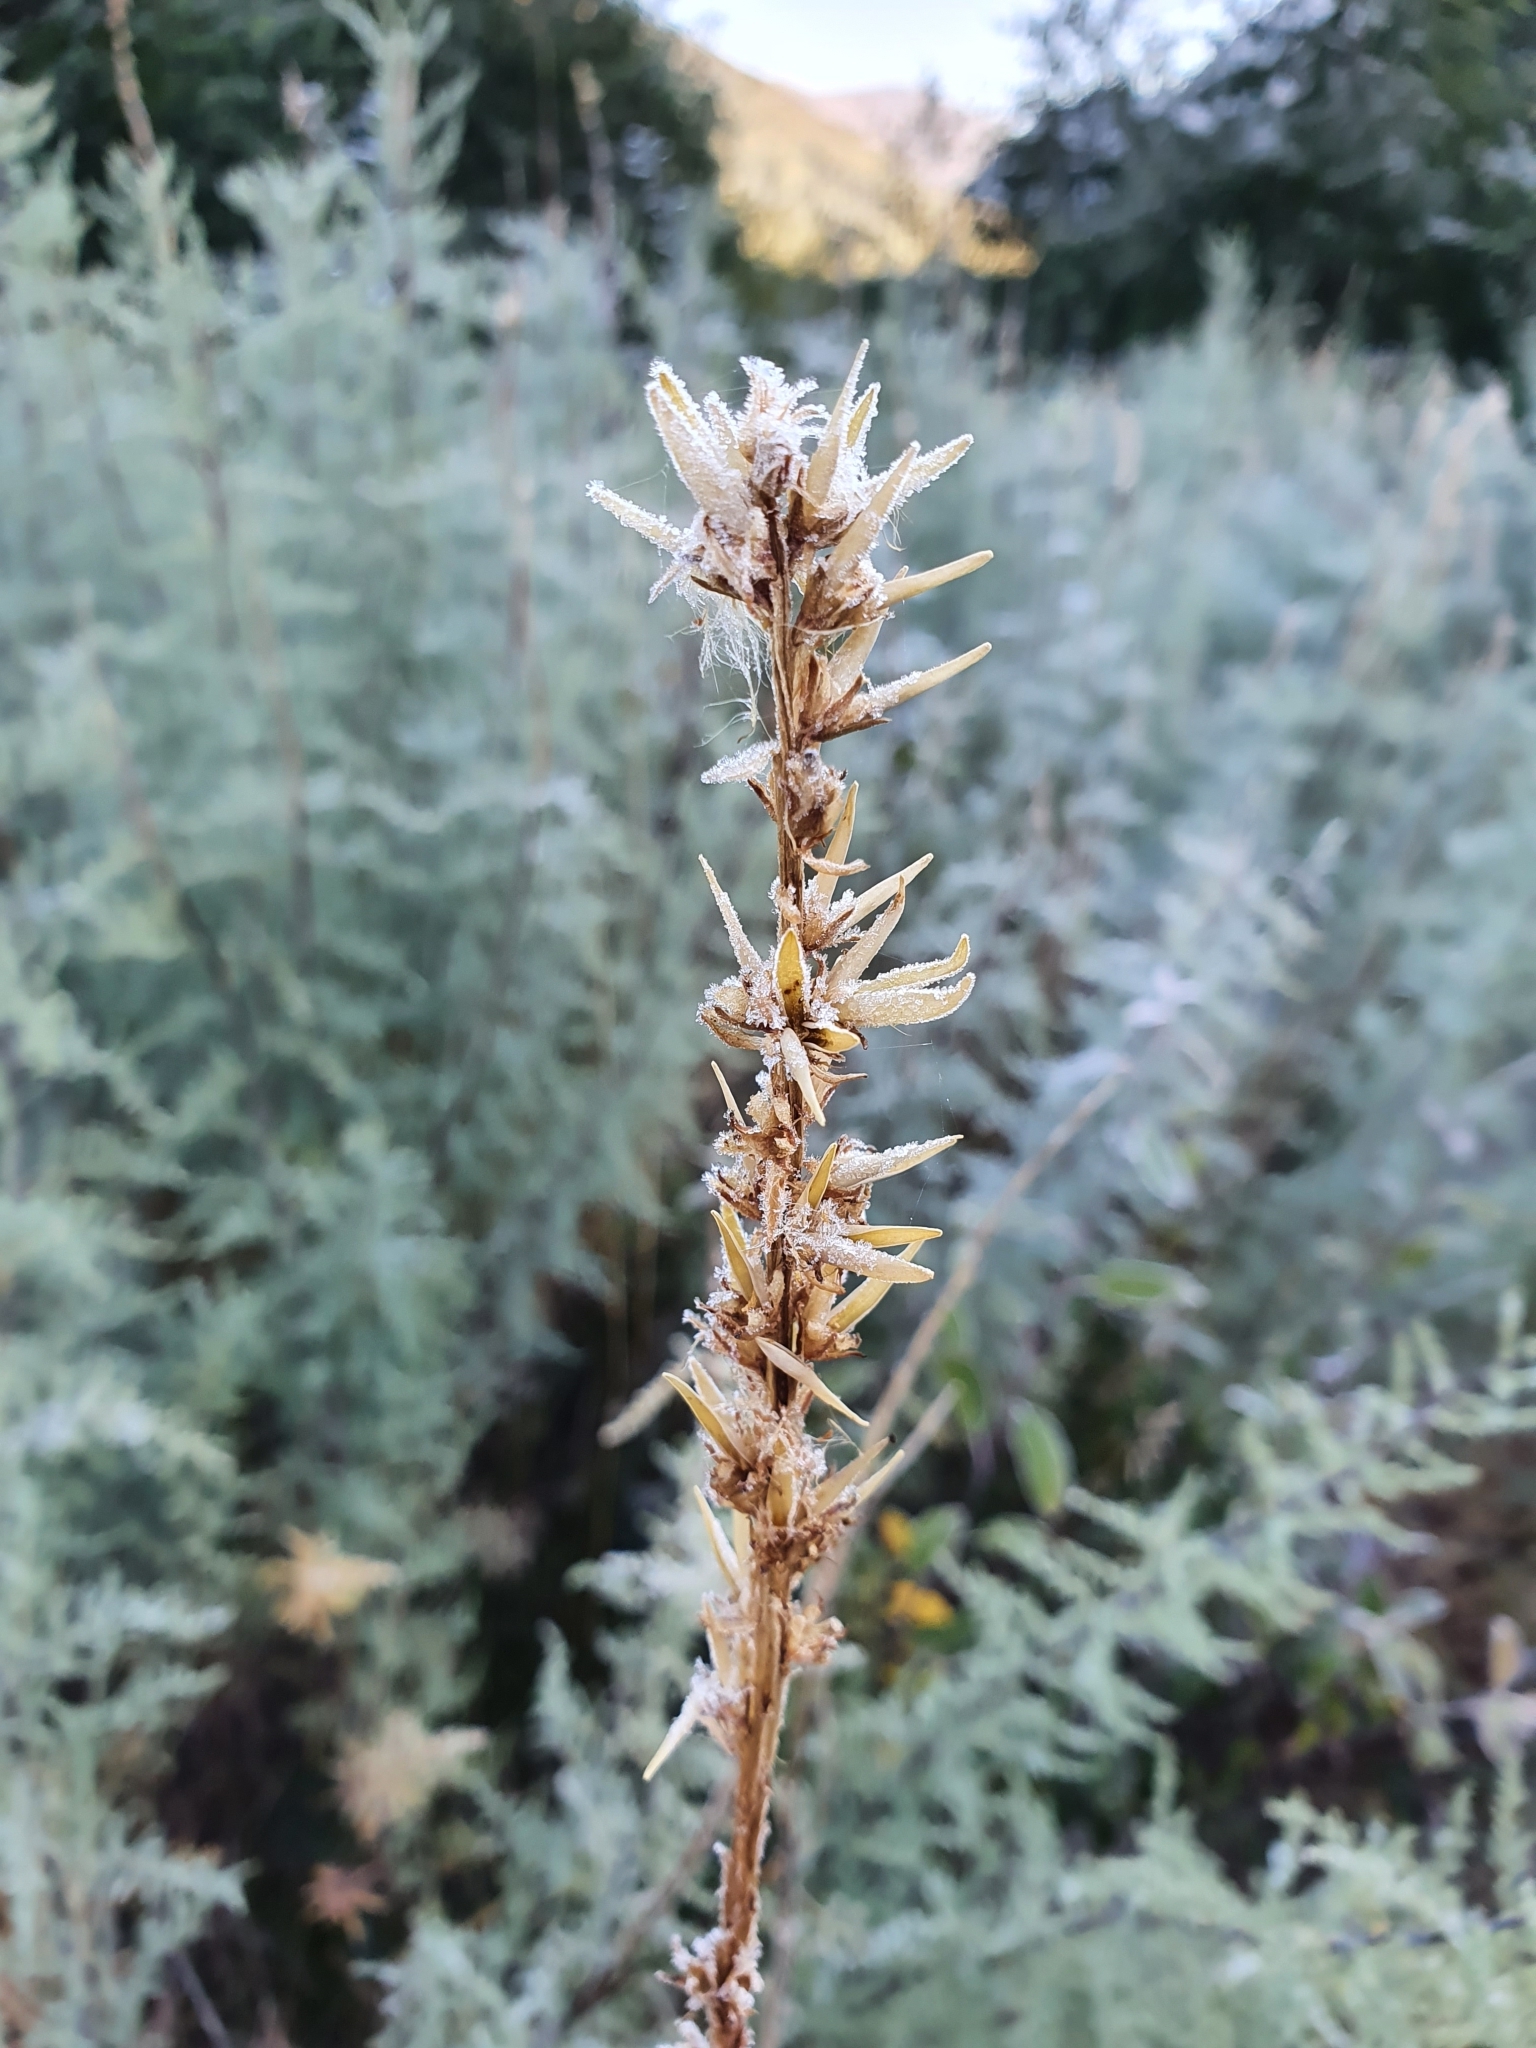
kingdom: Plantae
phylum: Tracheophyta
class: Magnoliopsida
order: Caryophyllales
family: Tamaricaceae
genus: Myricaria
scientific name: Myricaria germanica
